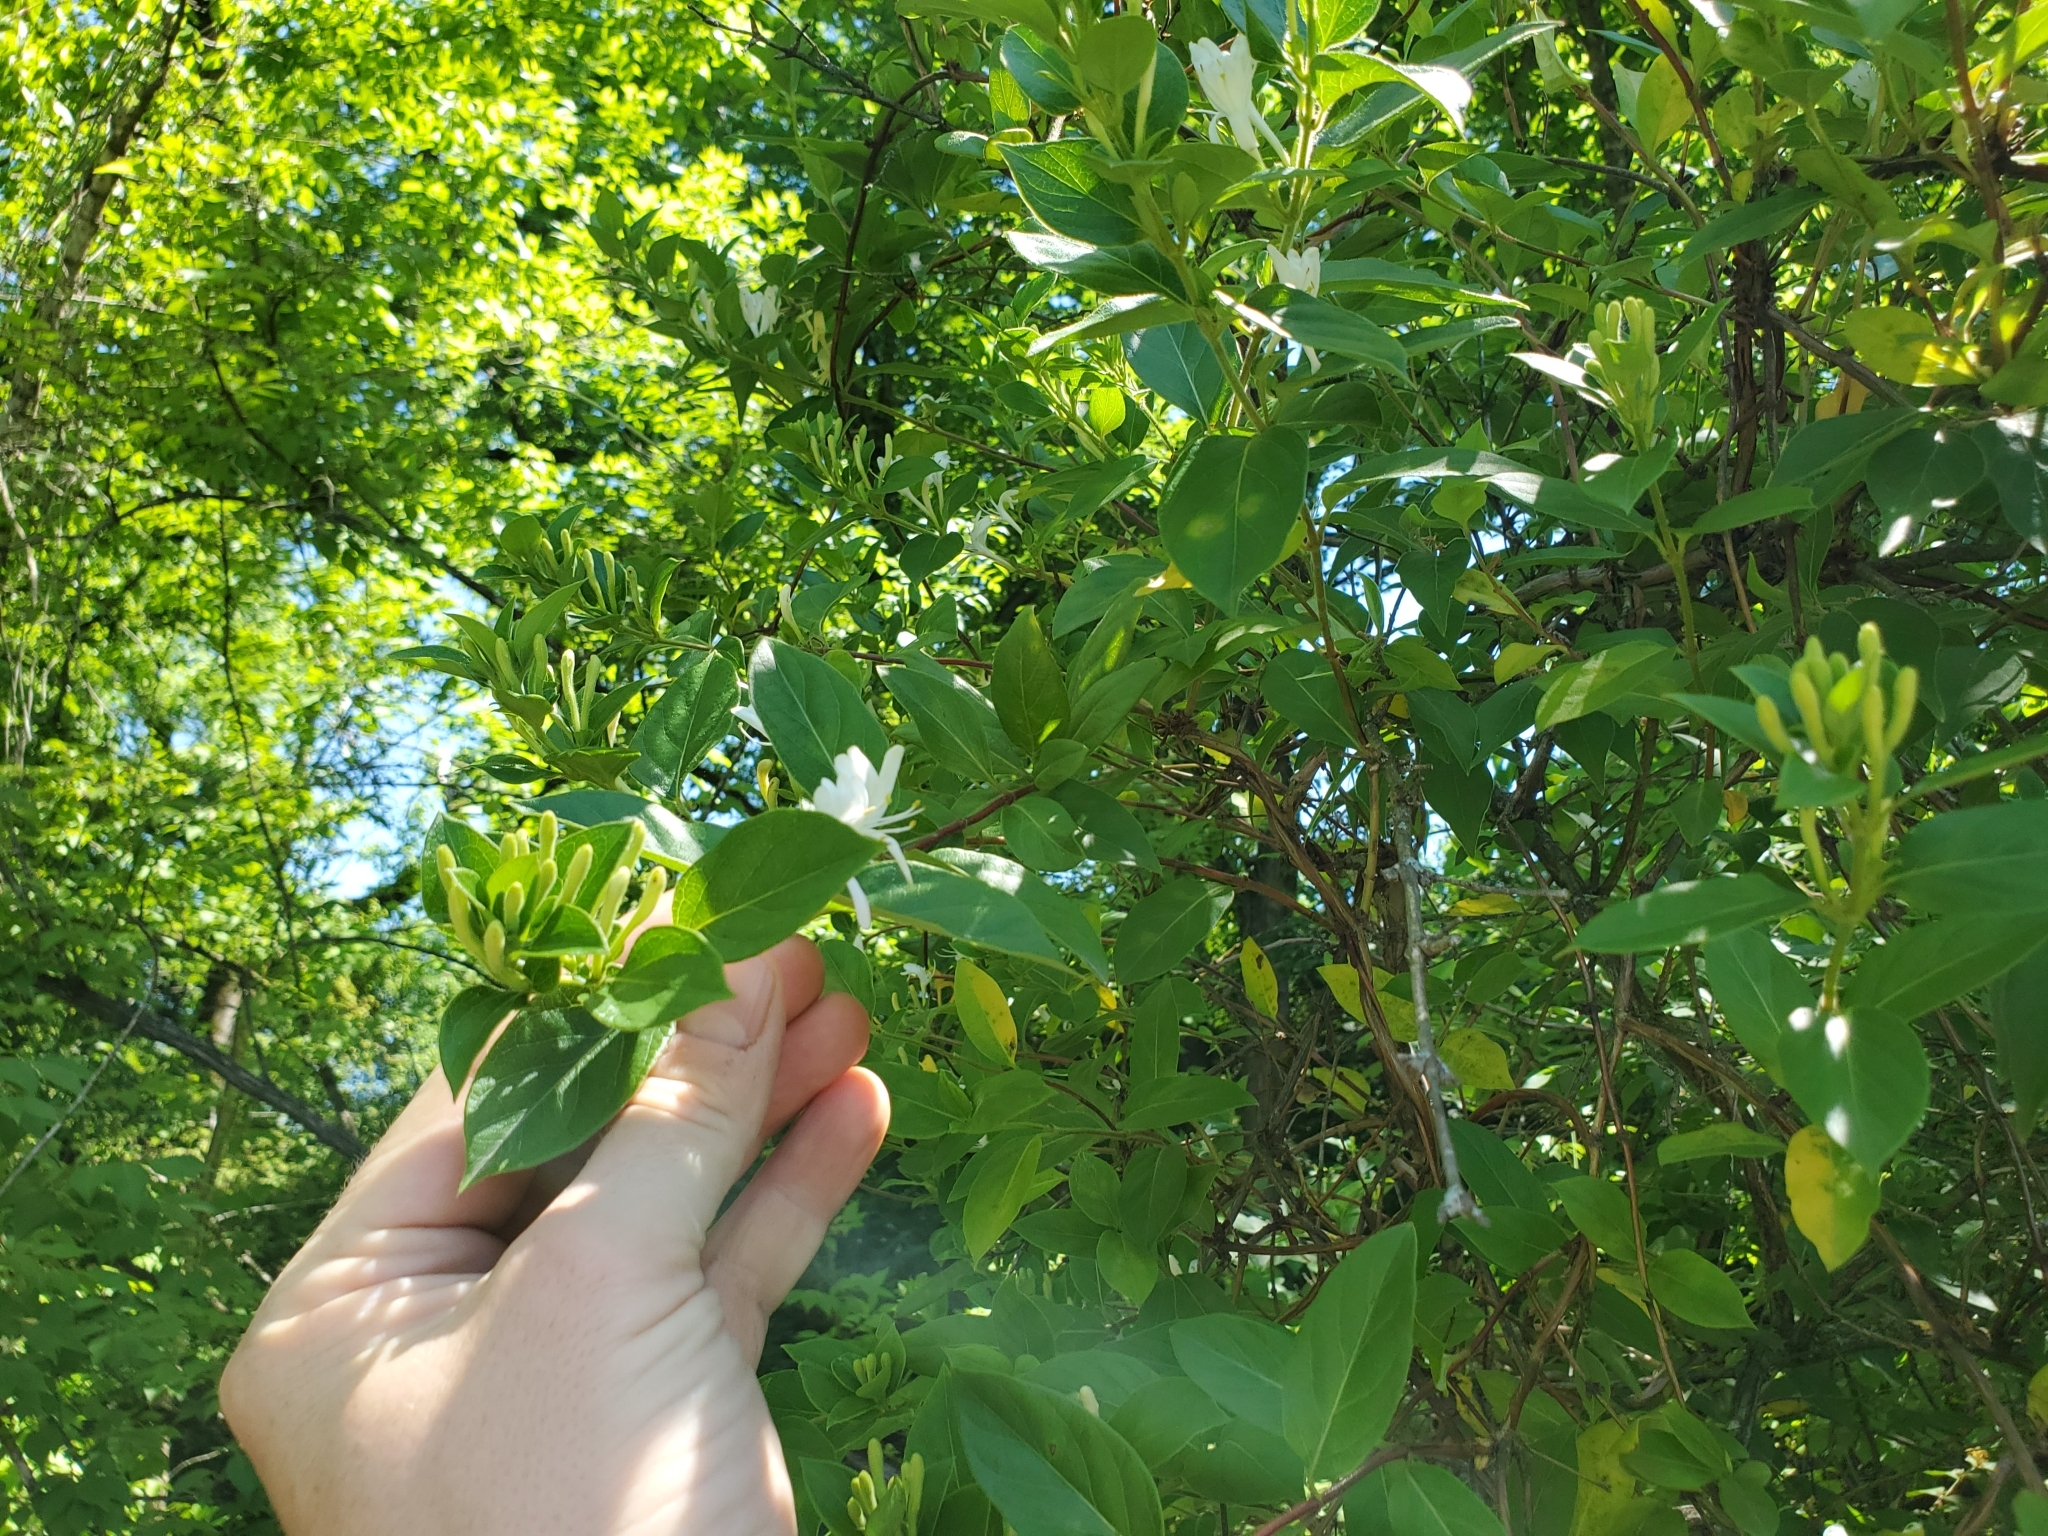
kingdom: Plantae
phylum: Tracheophyta
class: Magnoliopsida
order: Dipsacales
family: Caprifoliaceae
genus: Lonicera
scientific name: Lonicera japonica
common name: Japanese honeysuckle
